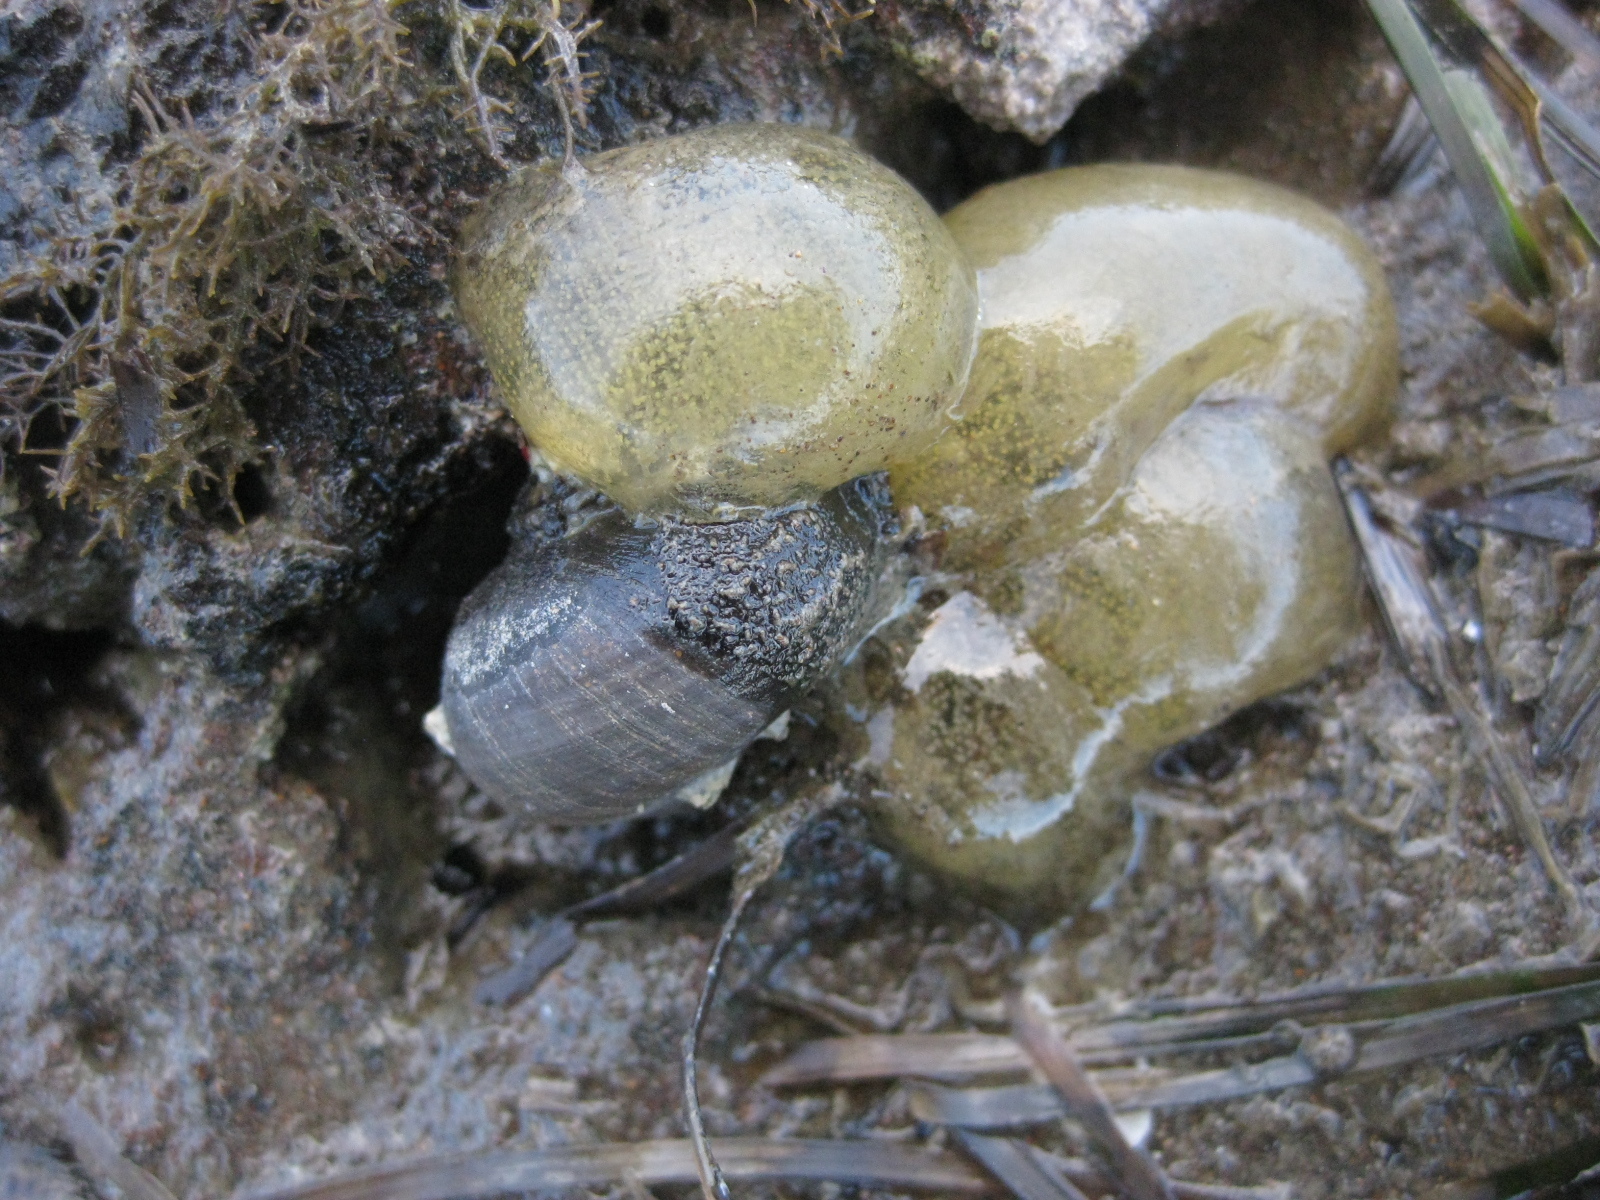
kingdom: Animalia
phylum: Mollusca
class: Gastropoda
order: Trochida
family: Turbinidae
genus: Lunella
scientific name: Lunella smaragda
